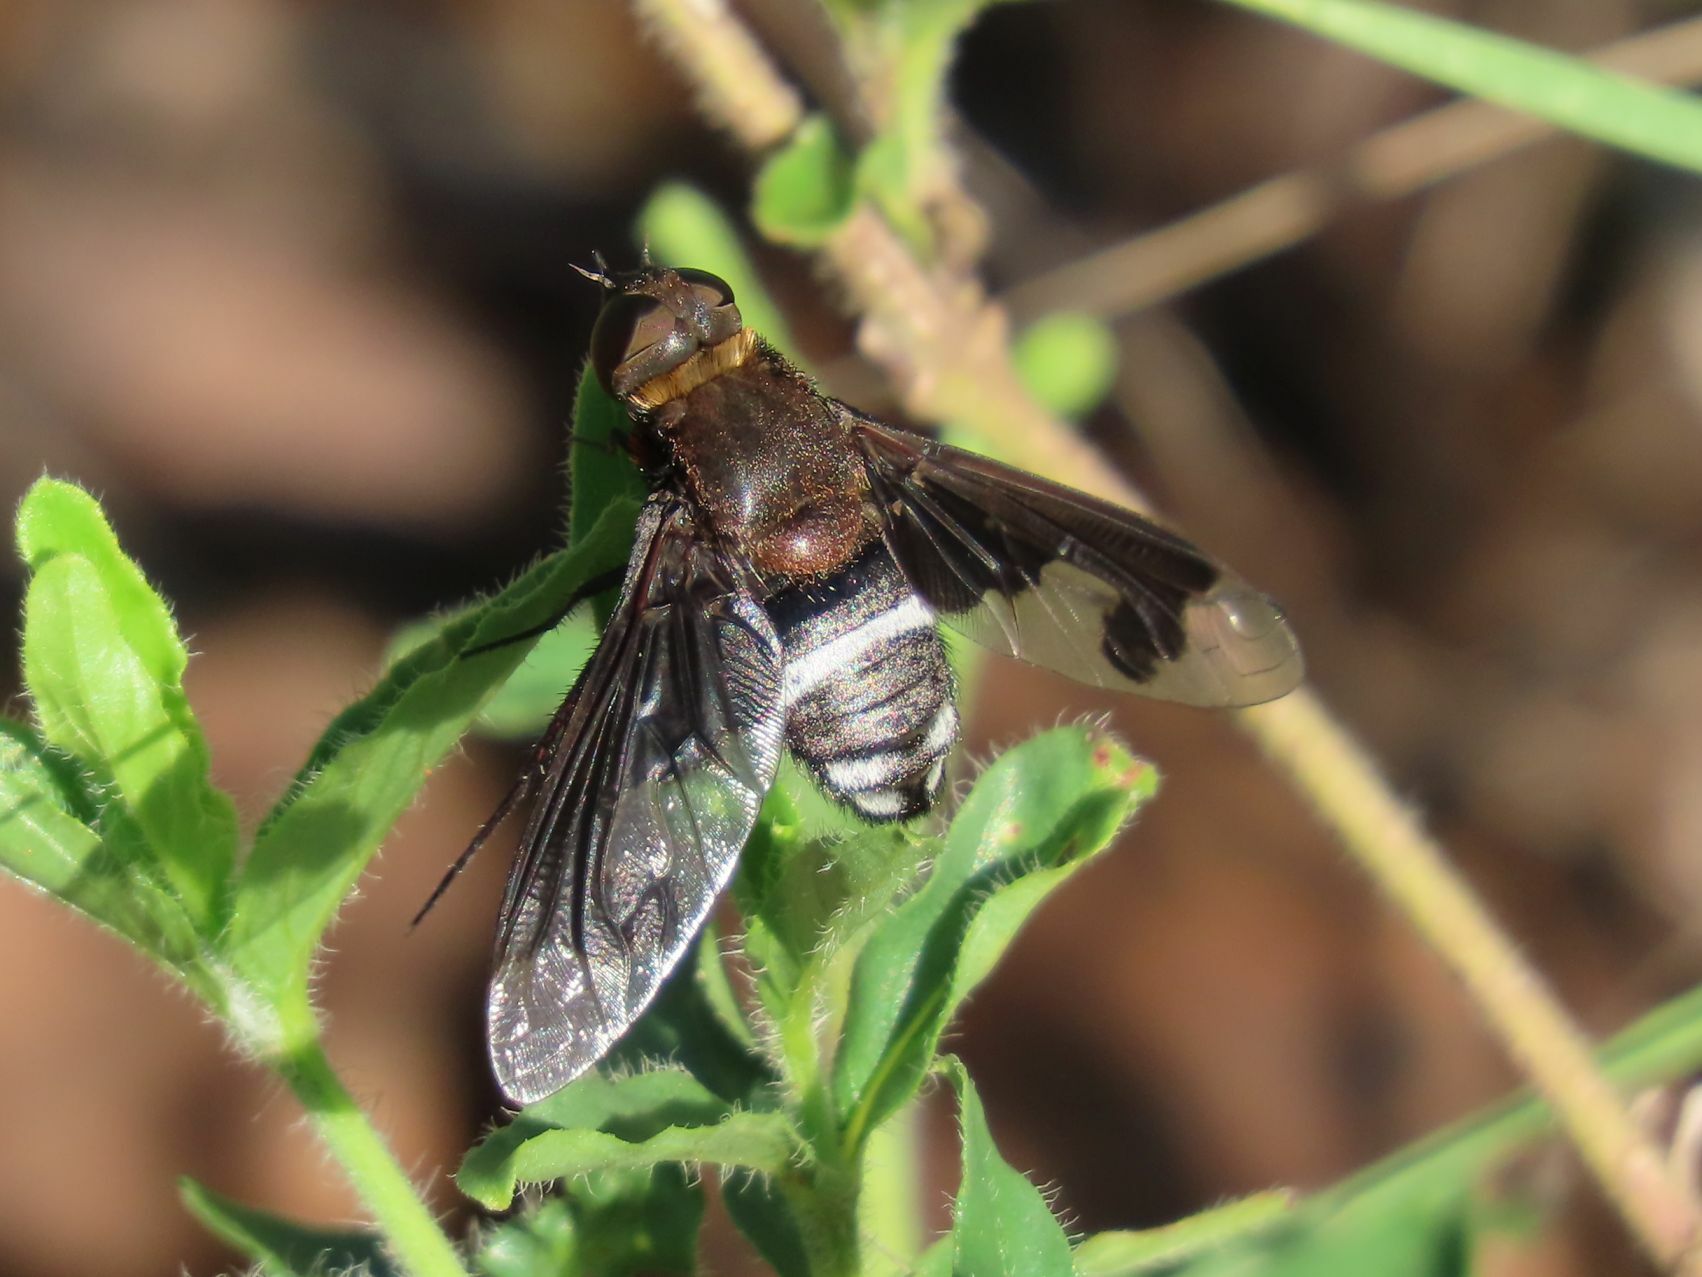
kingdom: Animalia
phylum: Arthropoda
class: Insecta
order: Diptera
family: Bombyliidae
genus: Exoprosopa
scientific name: Exoprosopa morosa
